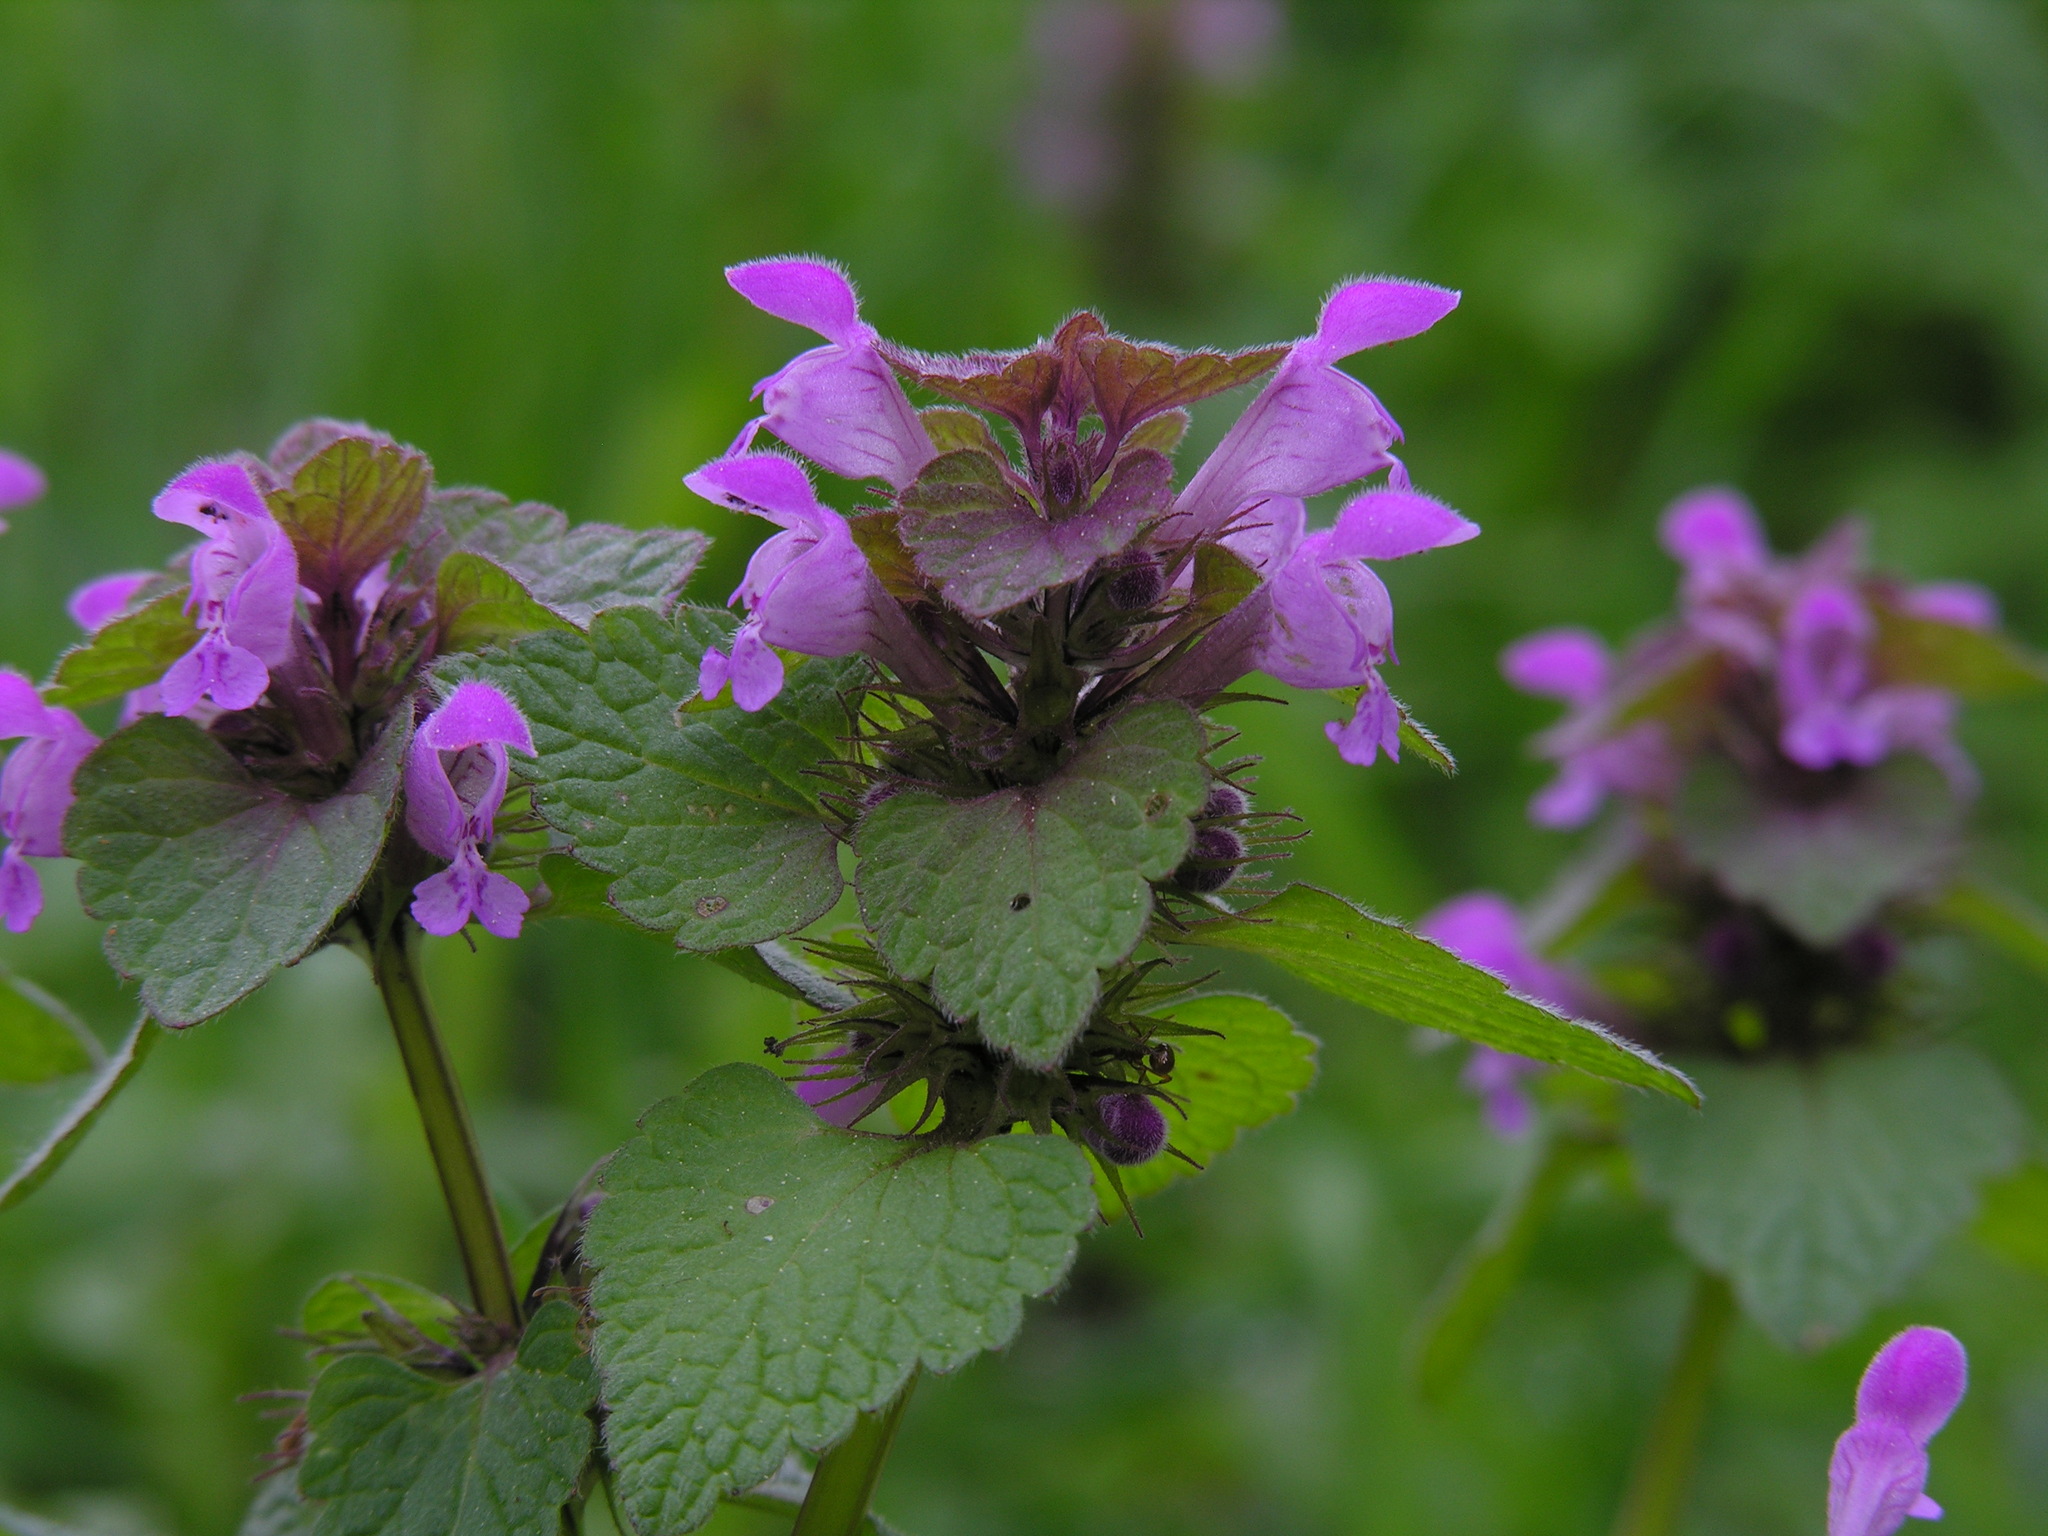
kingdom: Plantae
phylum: Tracheophyta
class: Magnoliopsida
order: Lamiales
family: Lamiaceae
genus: Lamium
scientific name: Lamium purpureum
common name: Red dead-nettle
